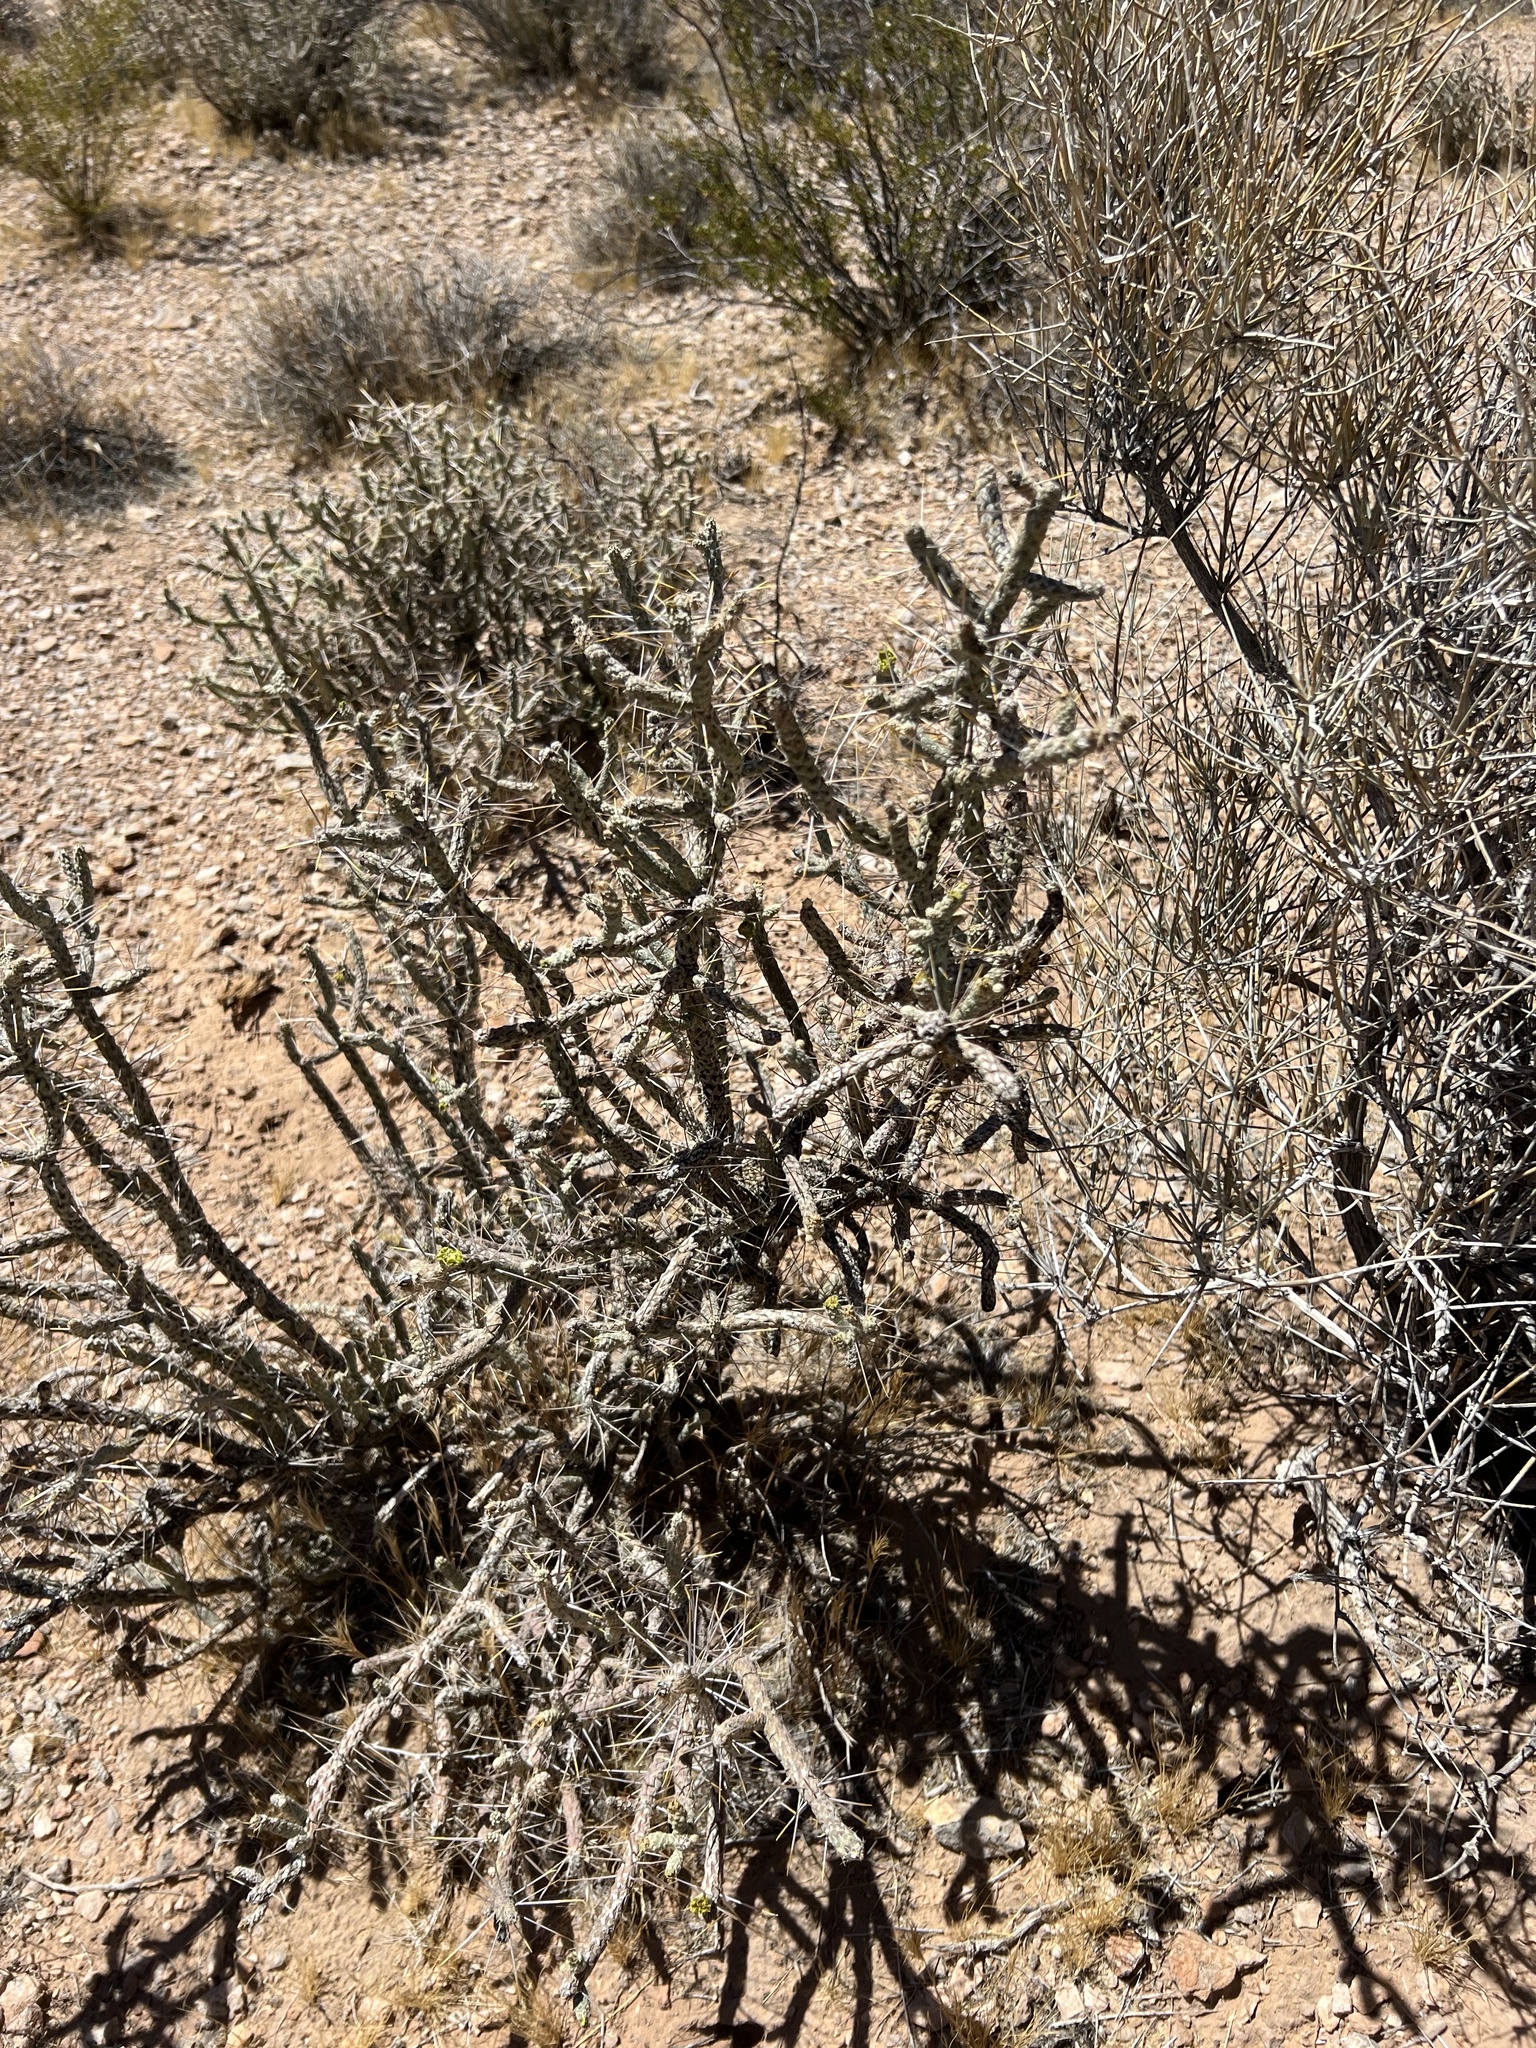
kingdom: Plantae
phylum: Tracheophyta
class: Magnoliopsida
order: Caryophyllales
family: Cactaceae
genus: Cylindropuntia
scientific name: Cylindropuntia ramosissima
